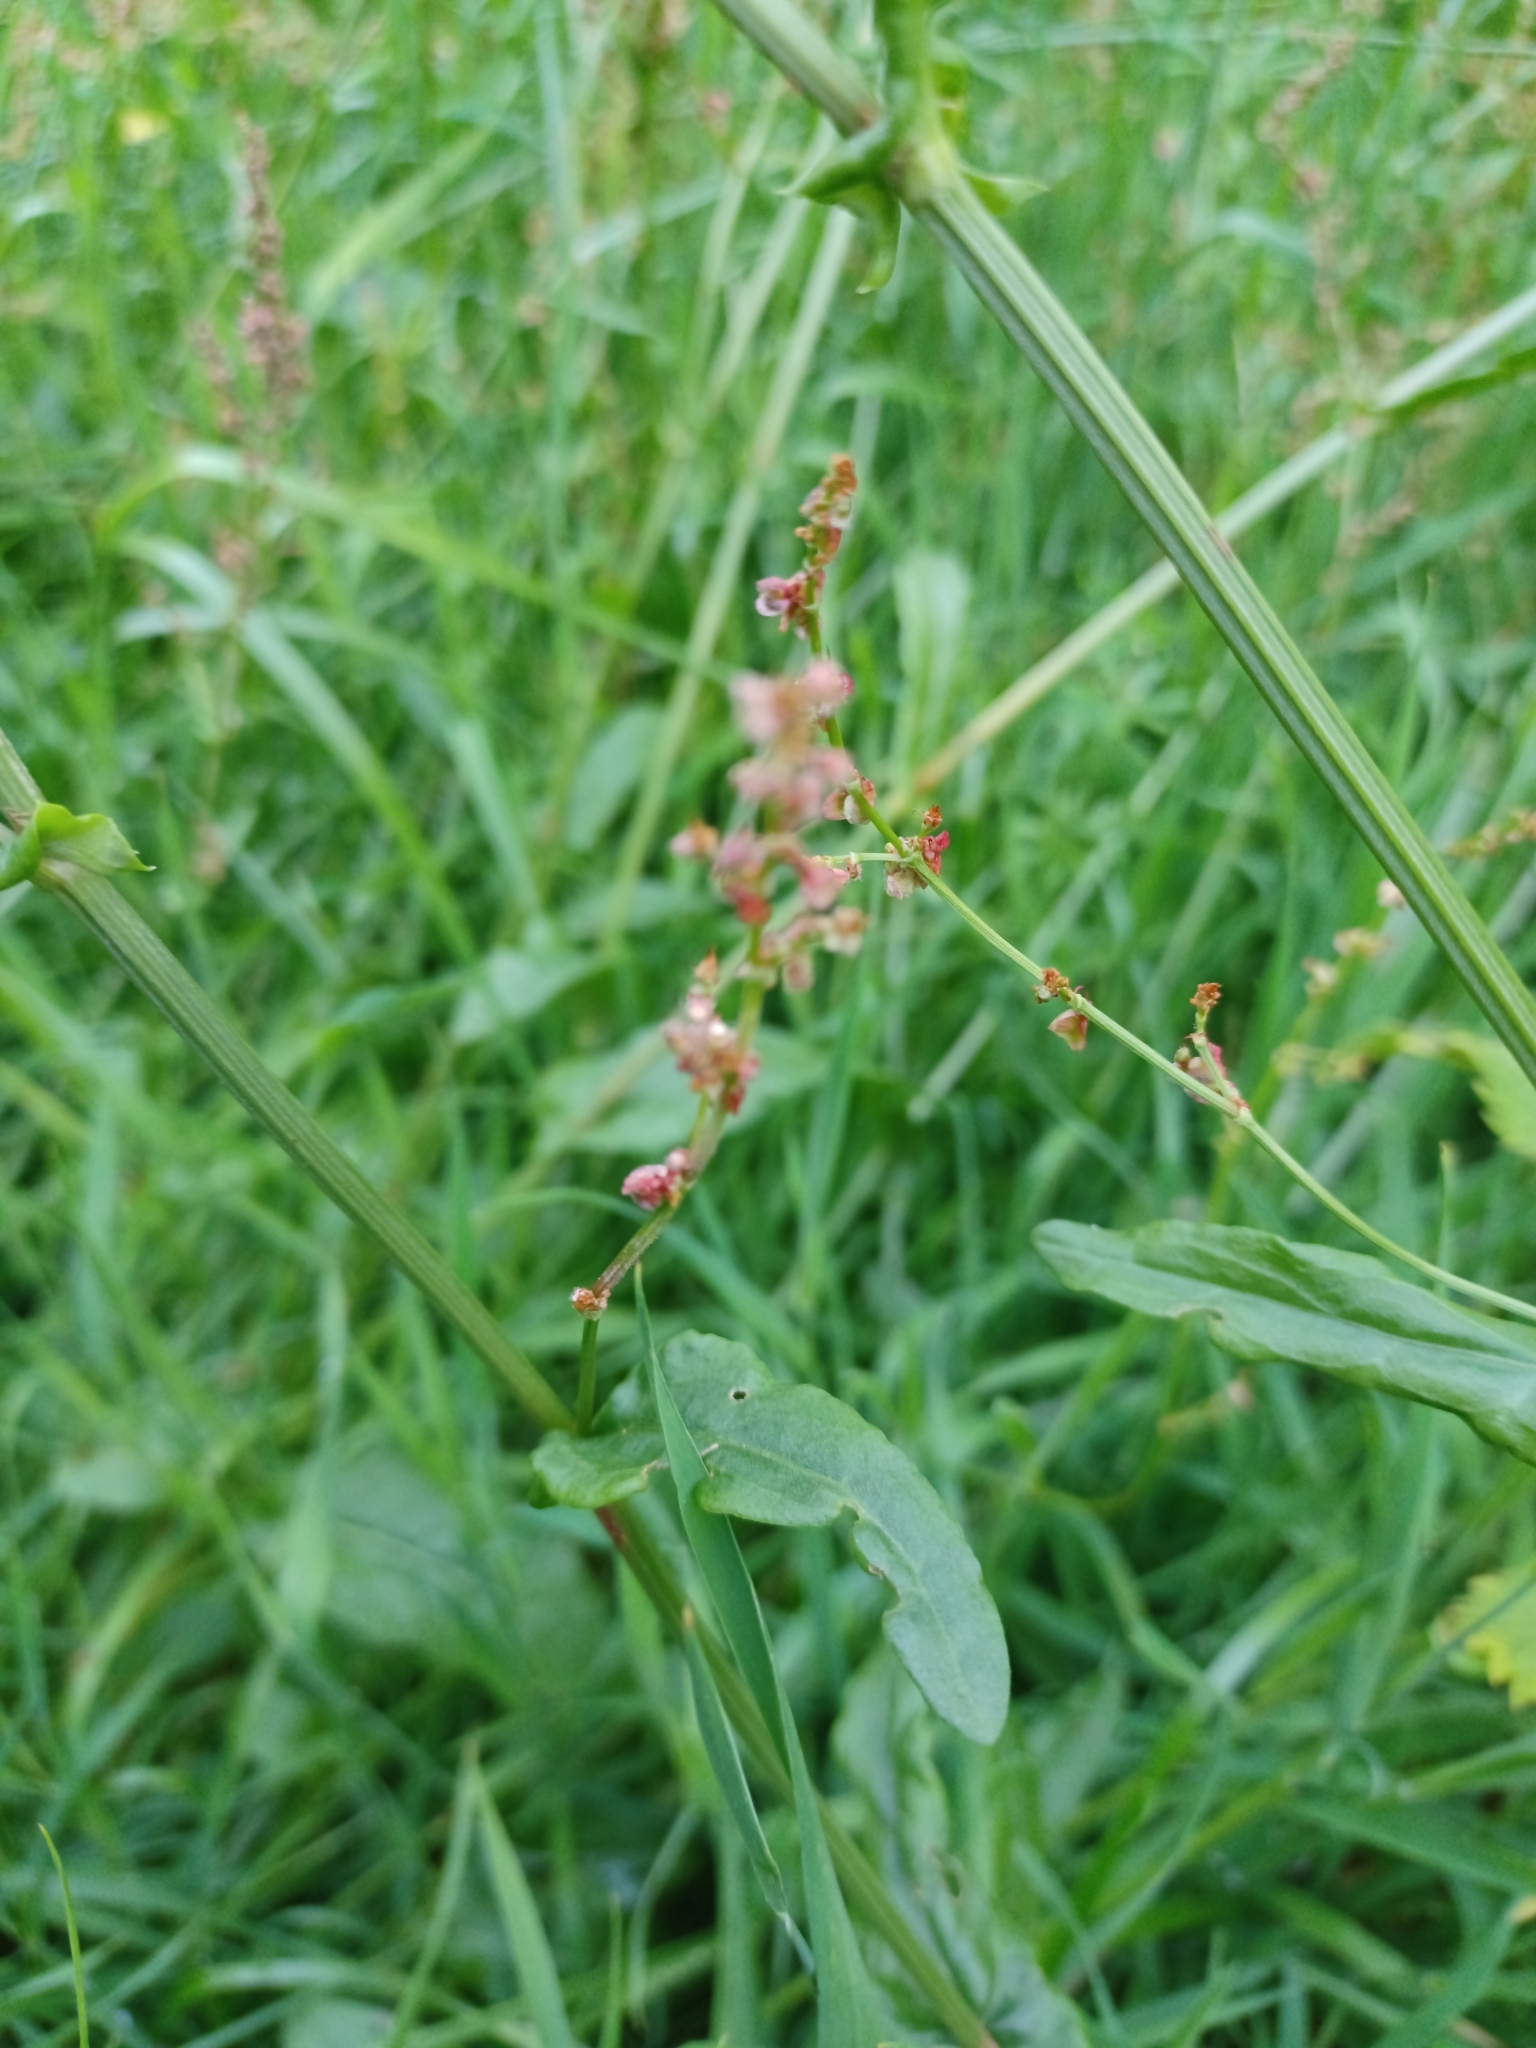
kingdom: Plantae
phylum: Tracheophyta
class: Magnoliopsida
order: Caryophyllales
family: Polygonaceae
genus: Rumex
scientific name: Rumex acetosa
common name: Garden sorrel
